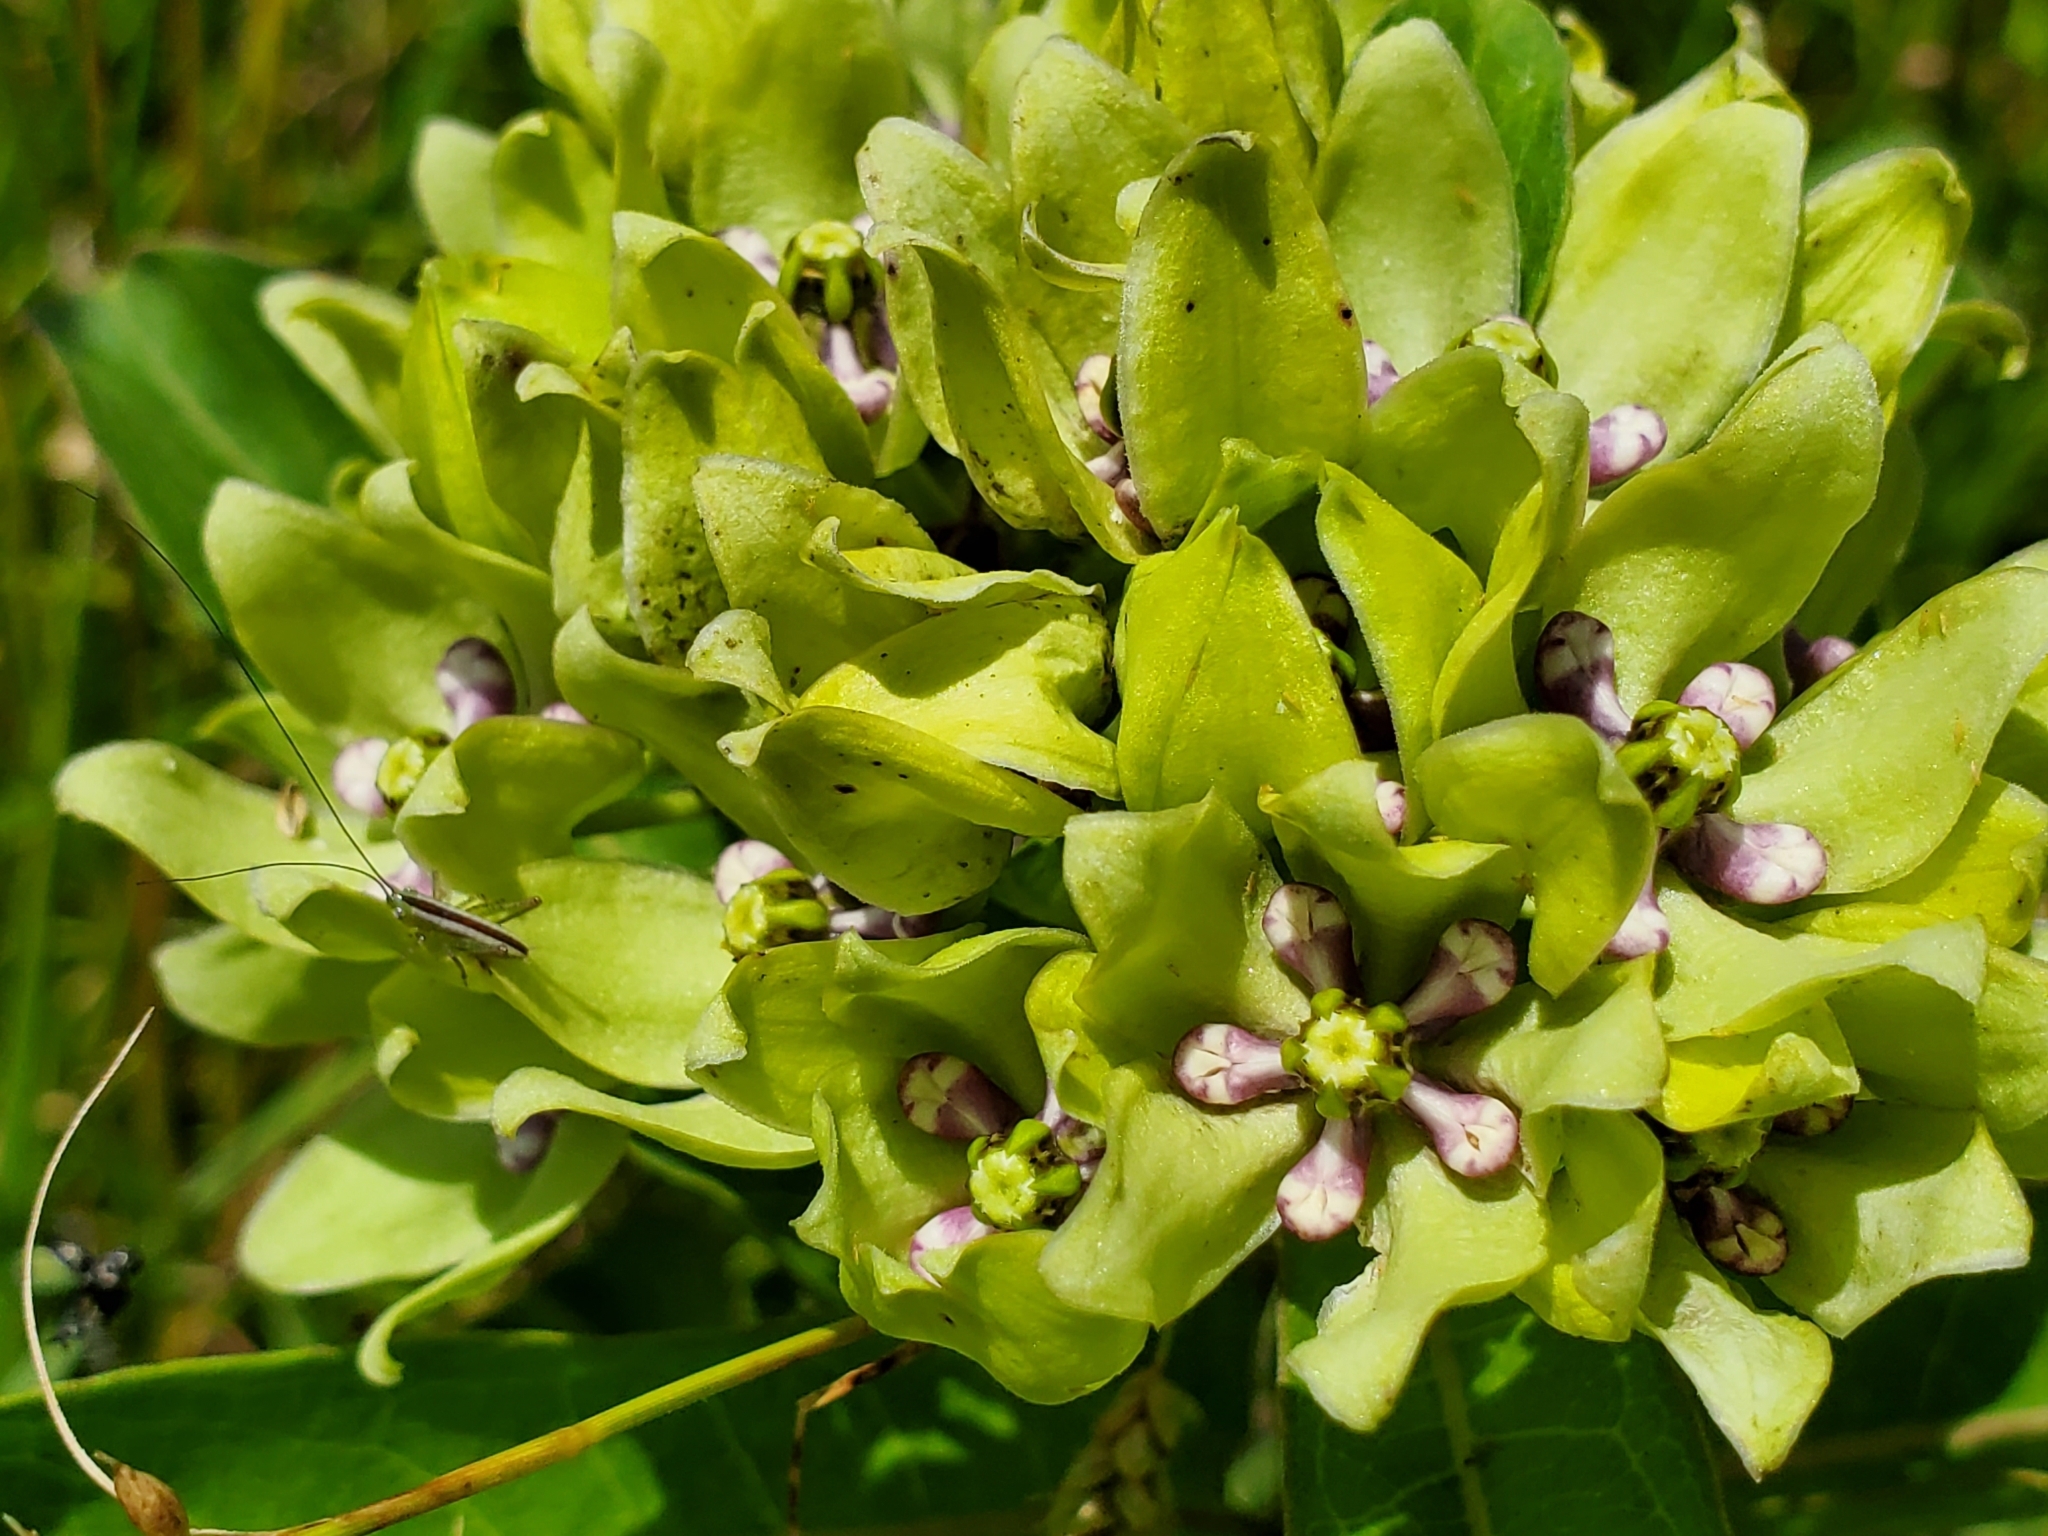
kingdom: Plantae
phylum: Tracheophyta
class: Magnoliopsida
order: Gentianales
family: Apocynaceae
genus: Asclepias
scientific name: Asclepias viridis
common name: Antelope-horns
